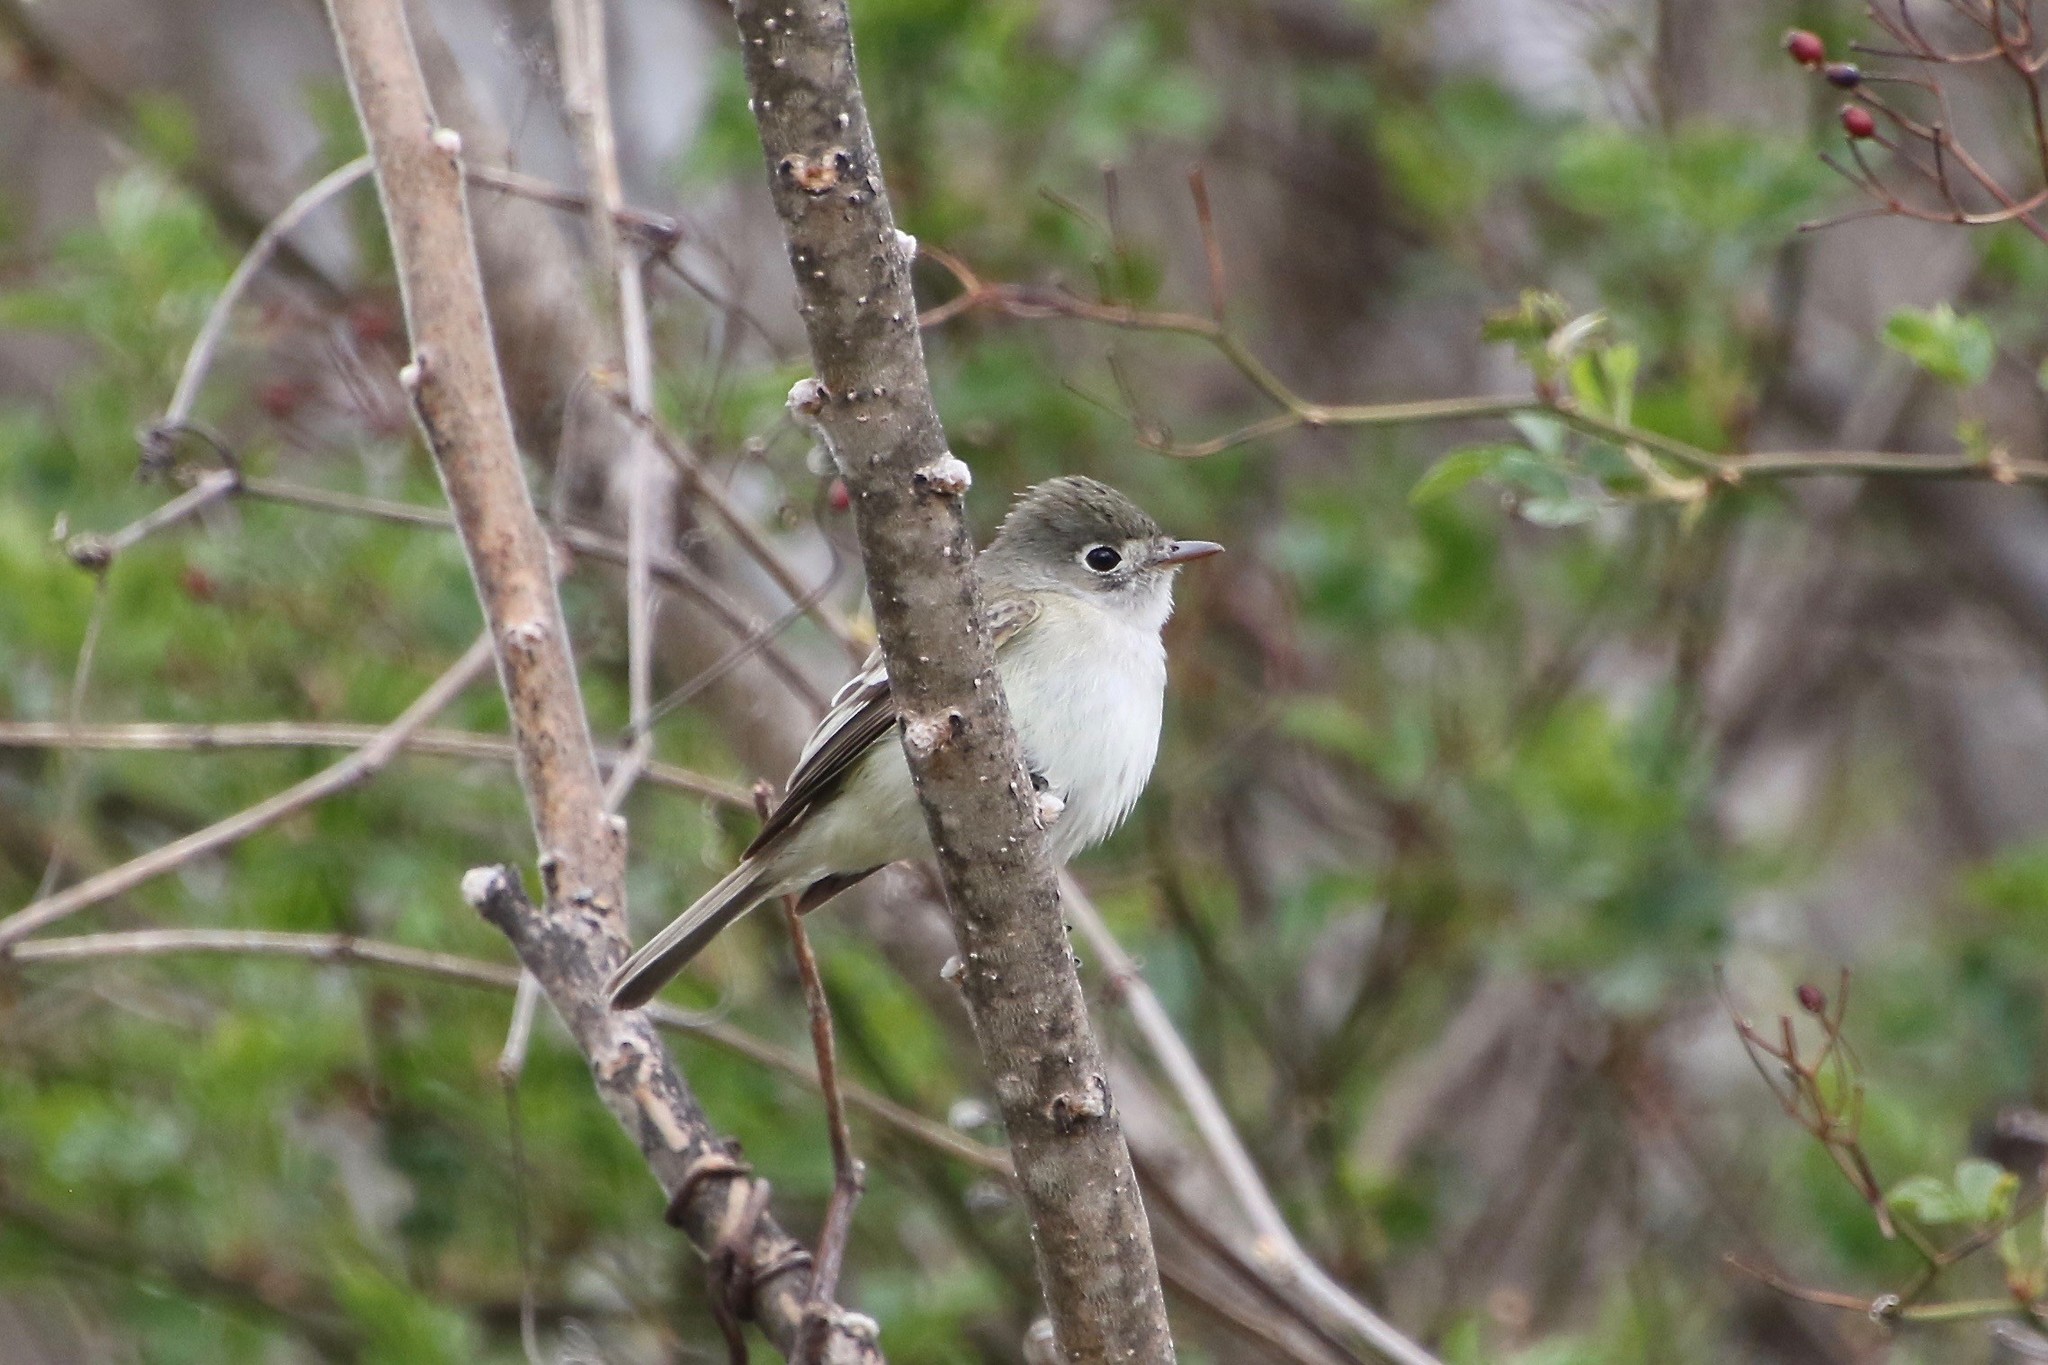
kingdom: Animalia
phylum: Chordata
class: Aves
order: Passeriformes
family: Tyrannidae
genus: Empidonax
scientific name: Empidonax minimus
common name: Least flycatcher
